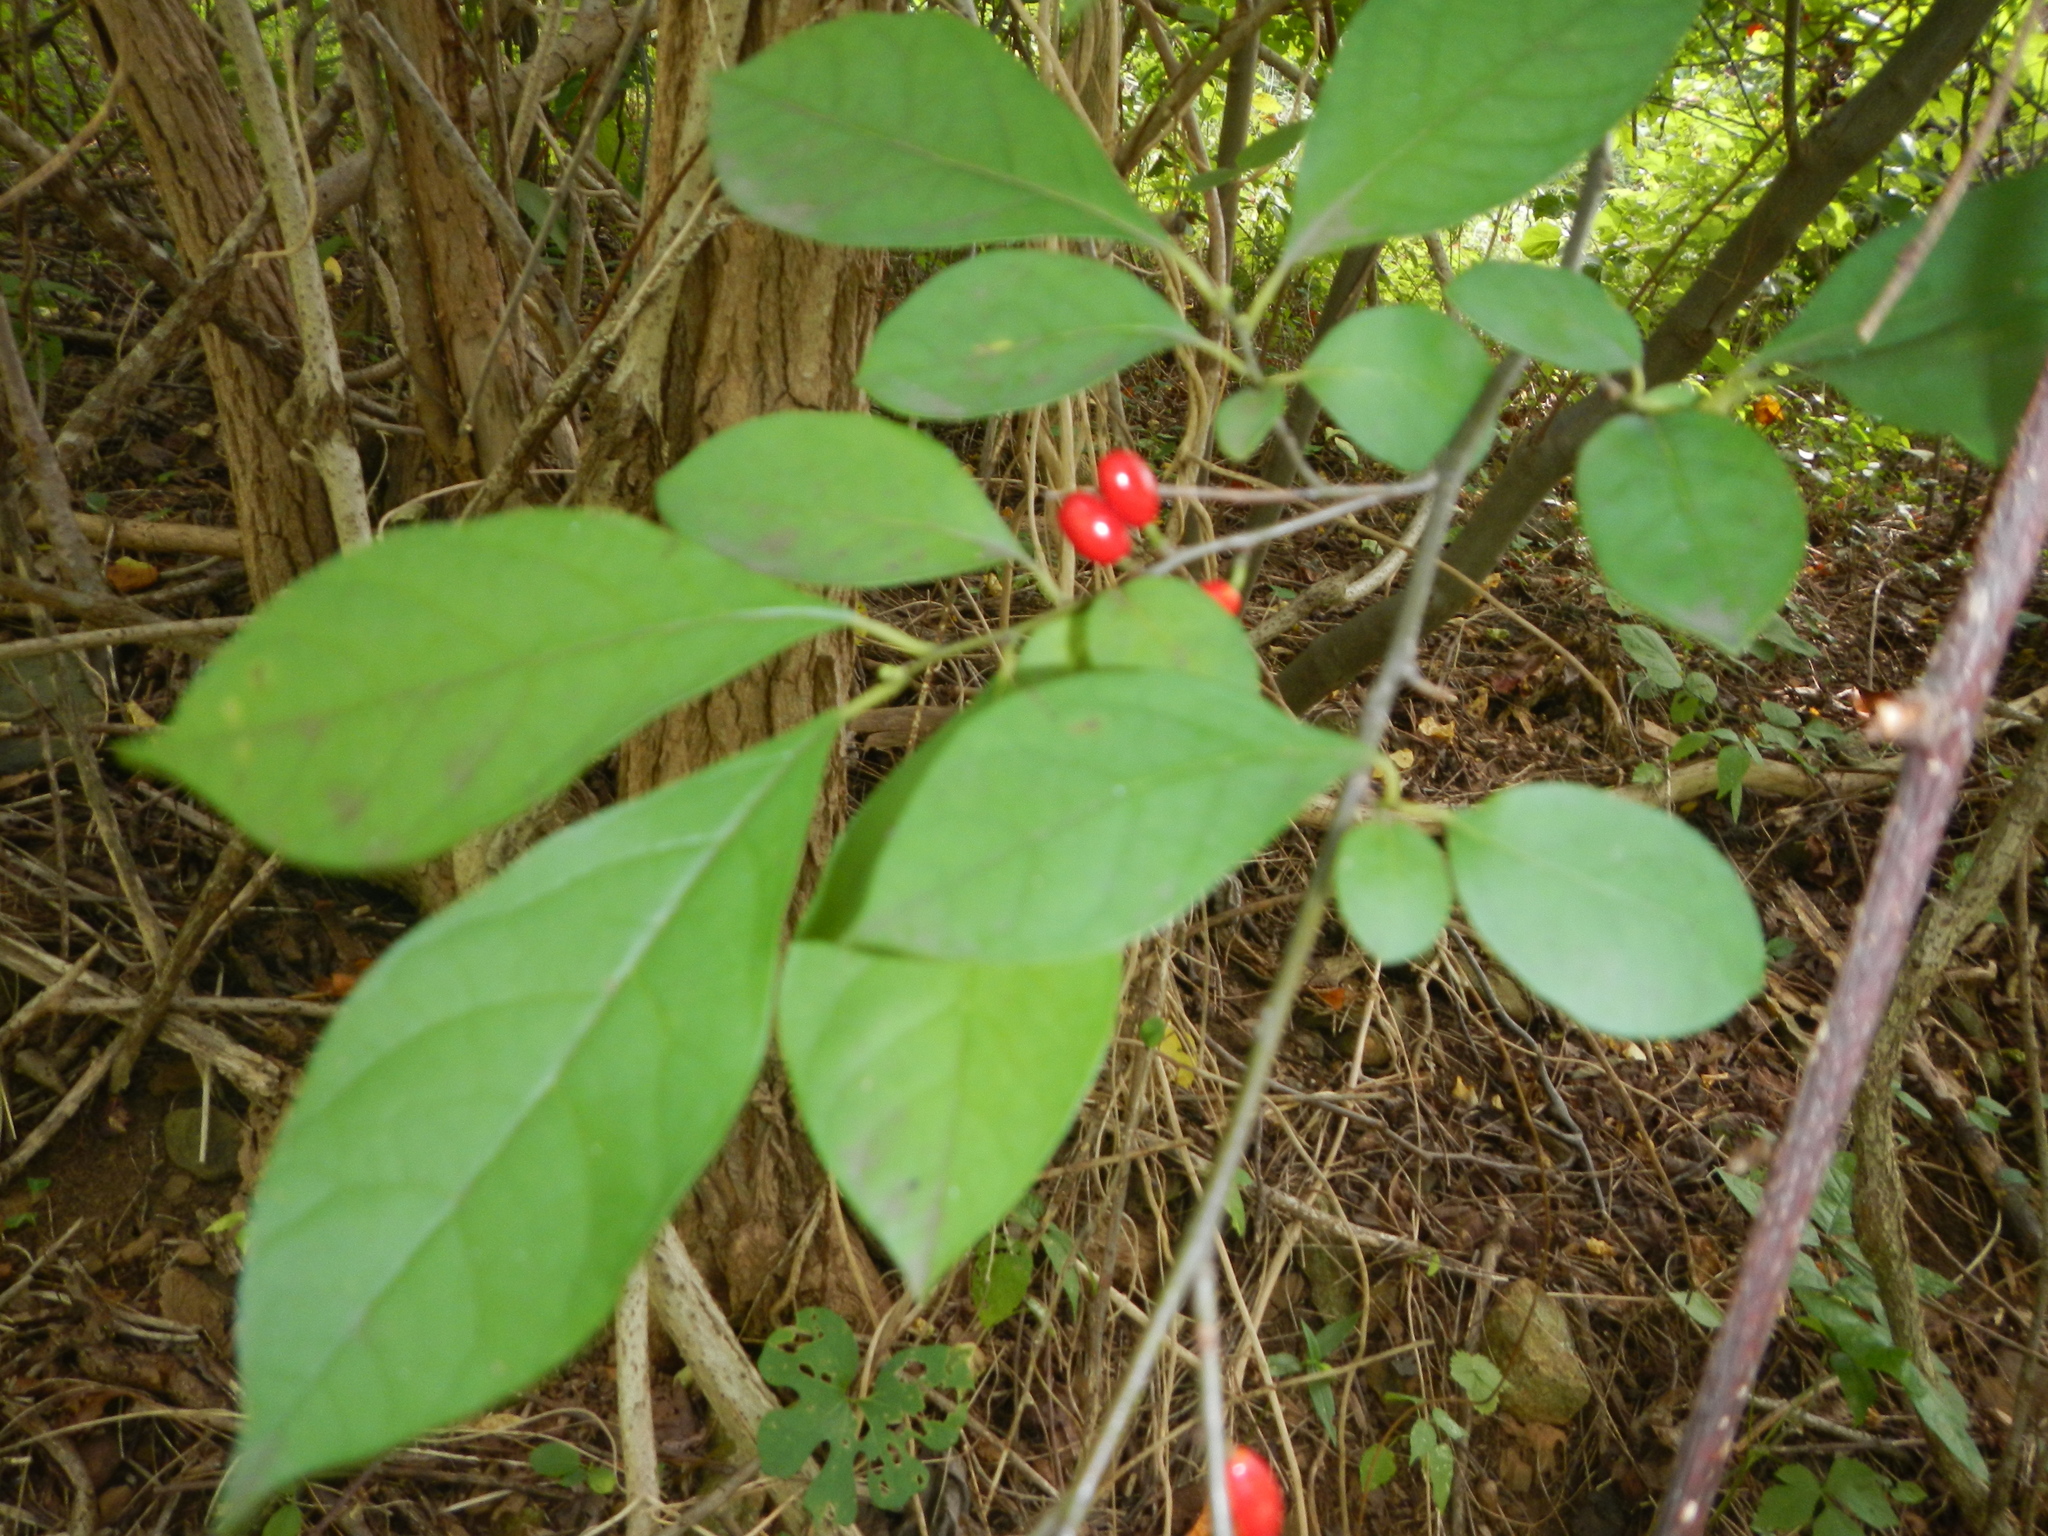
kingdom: Plantae
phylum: Tracheophyta
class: Magnoliopsida
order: Laurales
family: Lauraceae
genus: Lindera
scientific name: Lindera benzoin
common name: Spicebush
